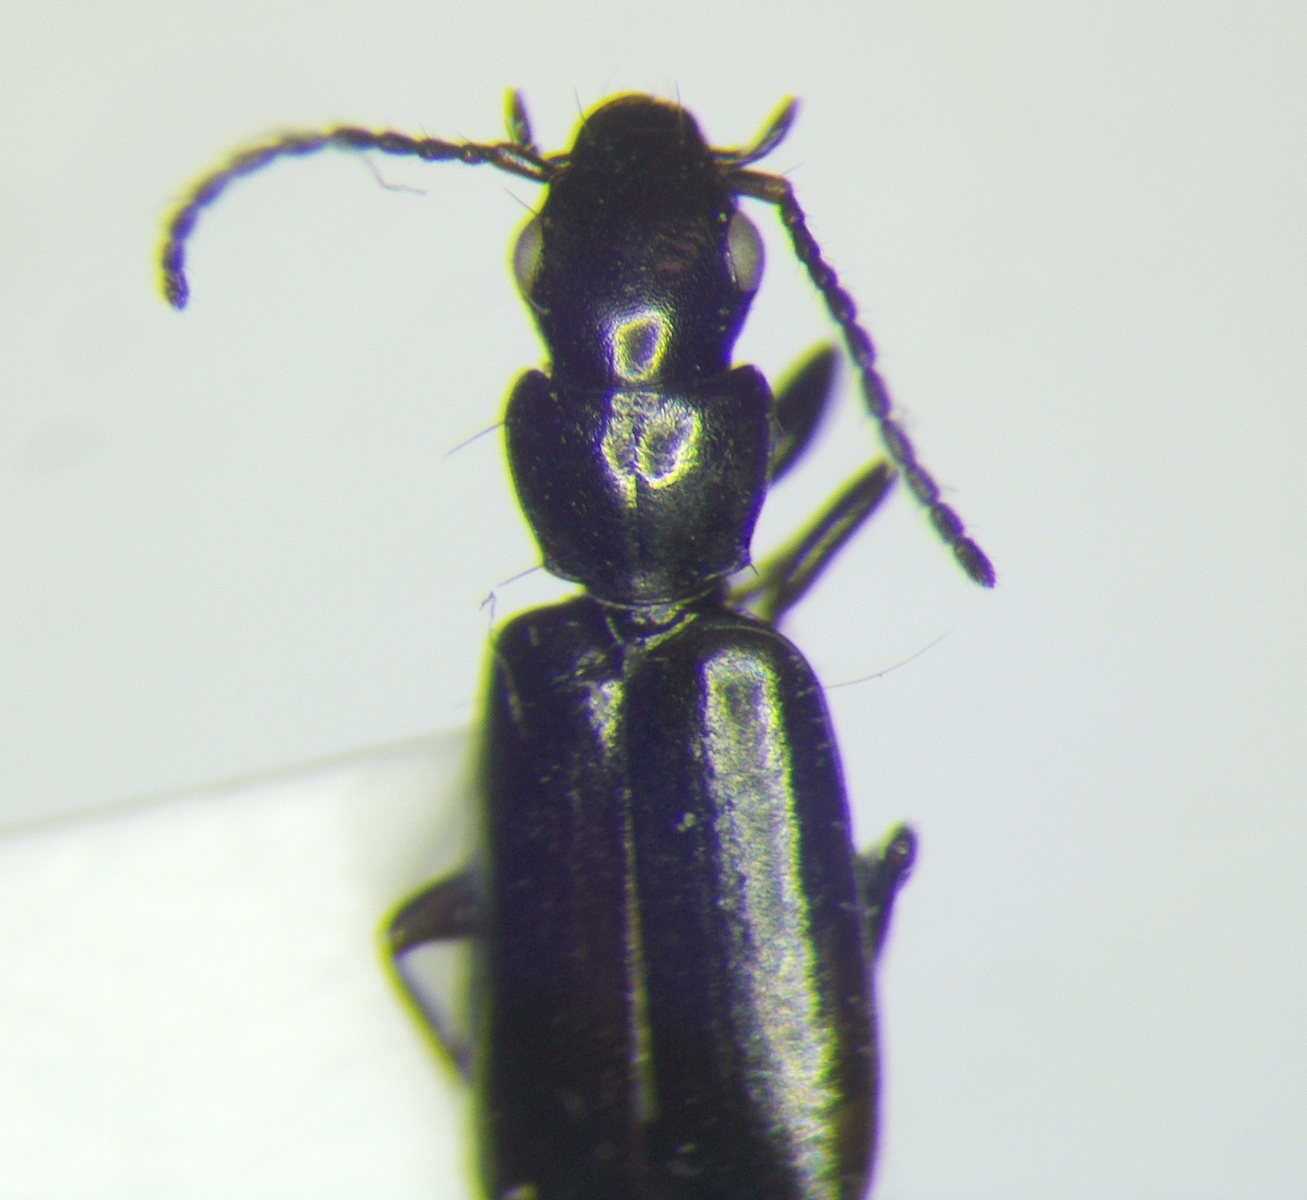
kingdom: Animalia
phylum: Arthropoda
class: Insecta
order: Coleoptera
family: Carabidae
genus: Microlestes
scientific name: Microlestes fulvibasis
